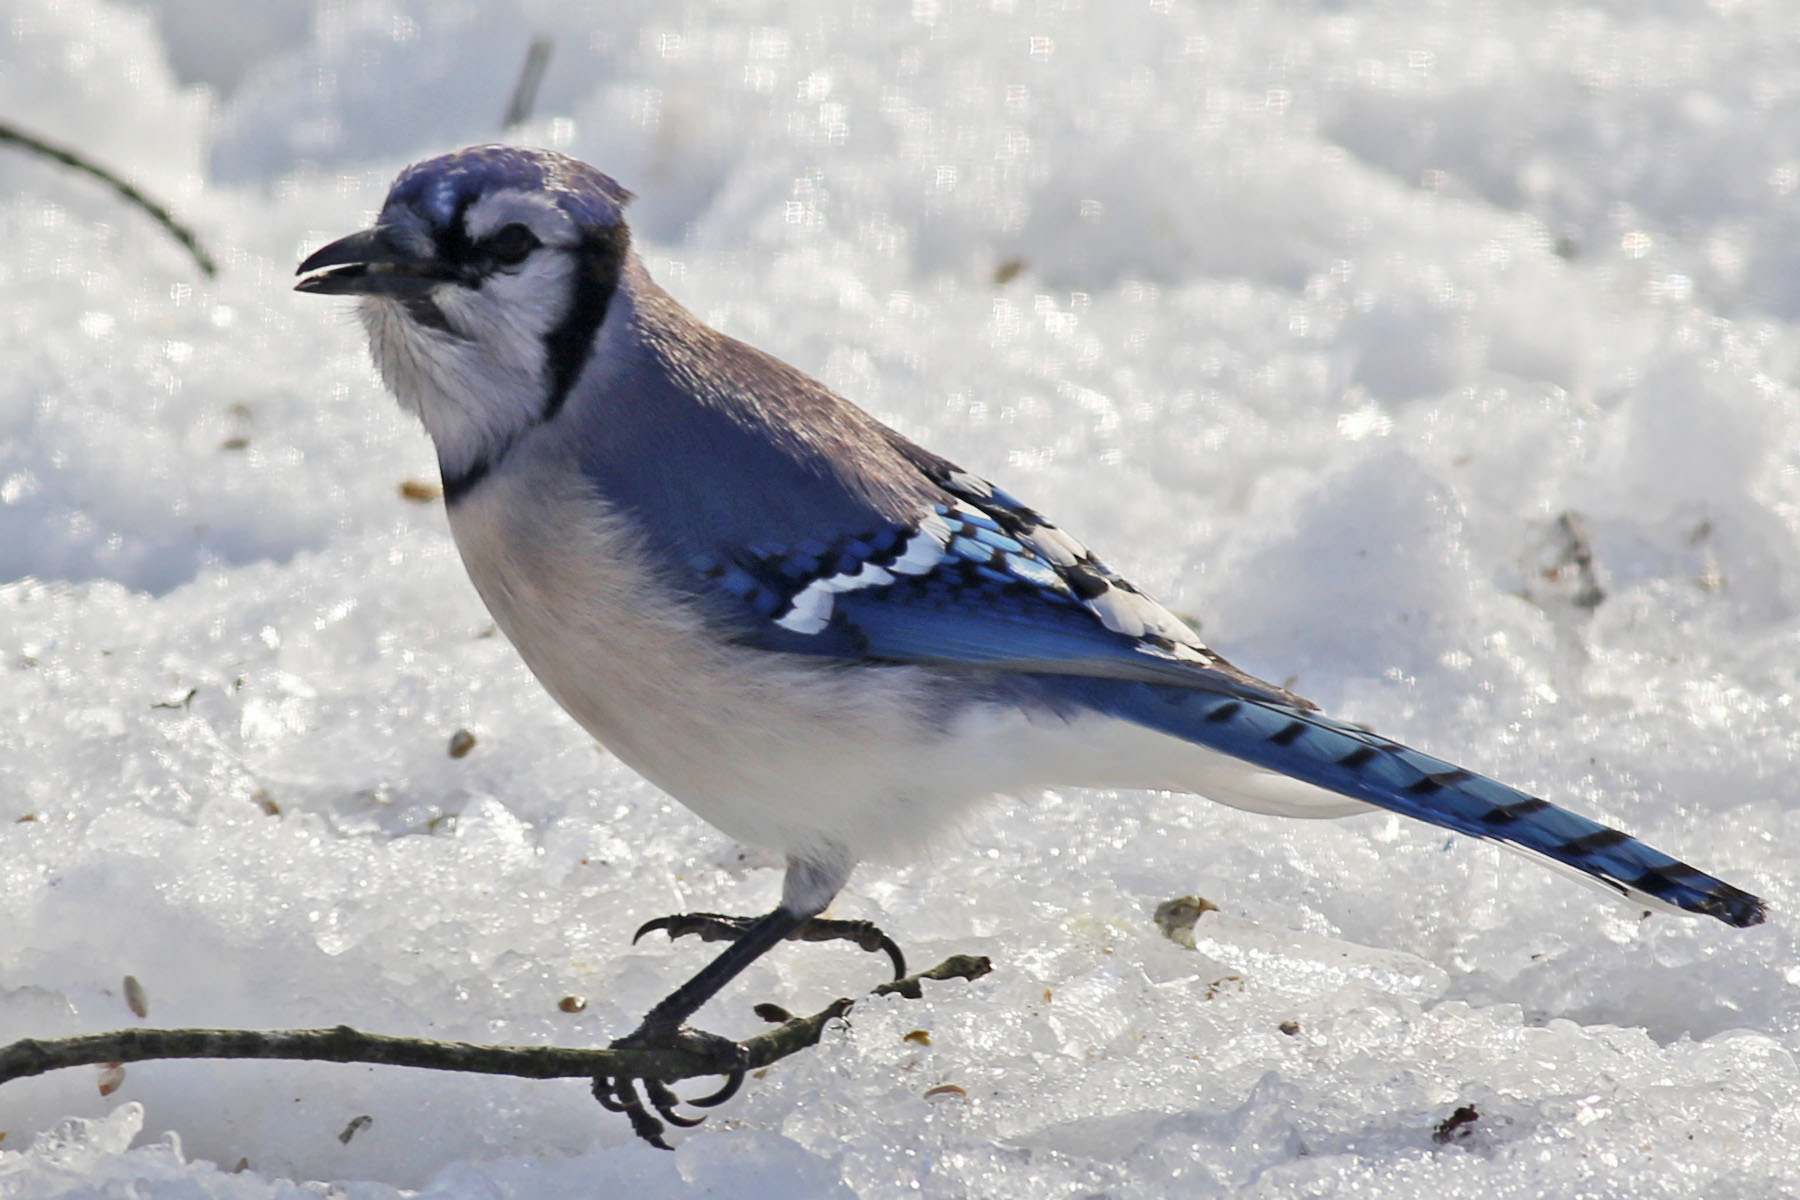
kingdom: Animalia
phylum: Chordata
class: Aves
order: Passeriformes
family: Corvidae
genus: Cyanocitta
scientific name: Cyanocitta cristata
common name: Blue jay
